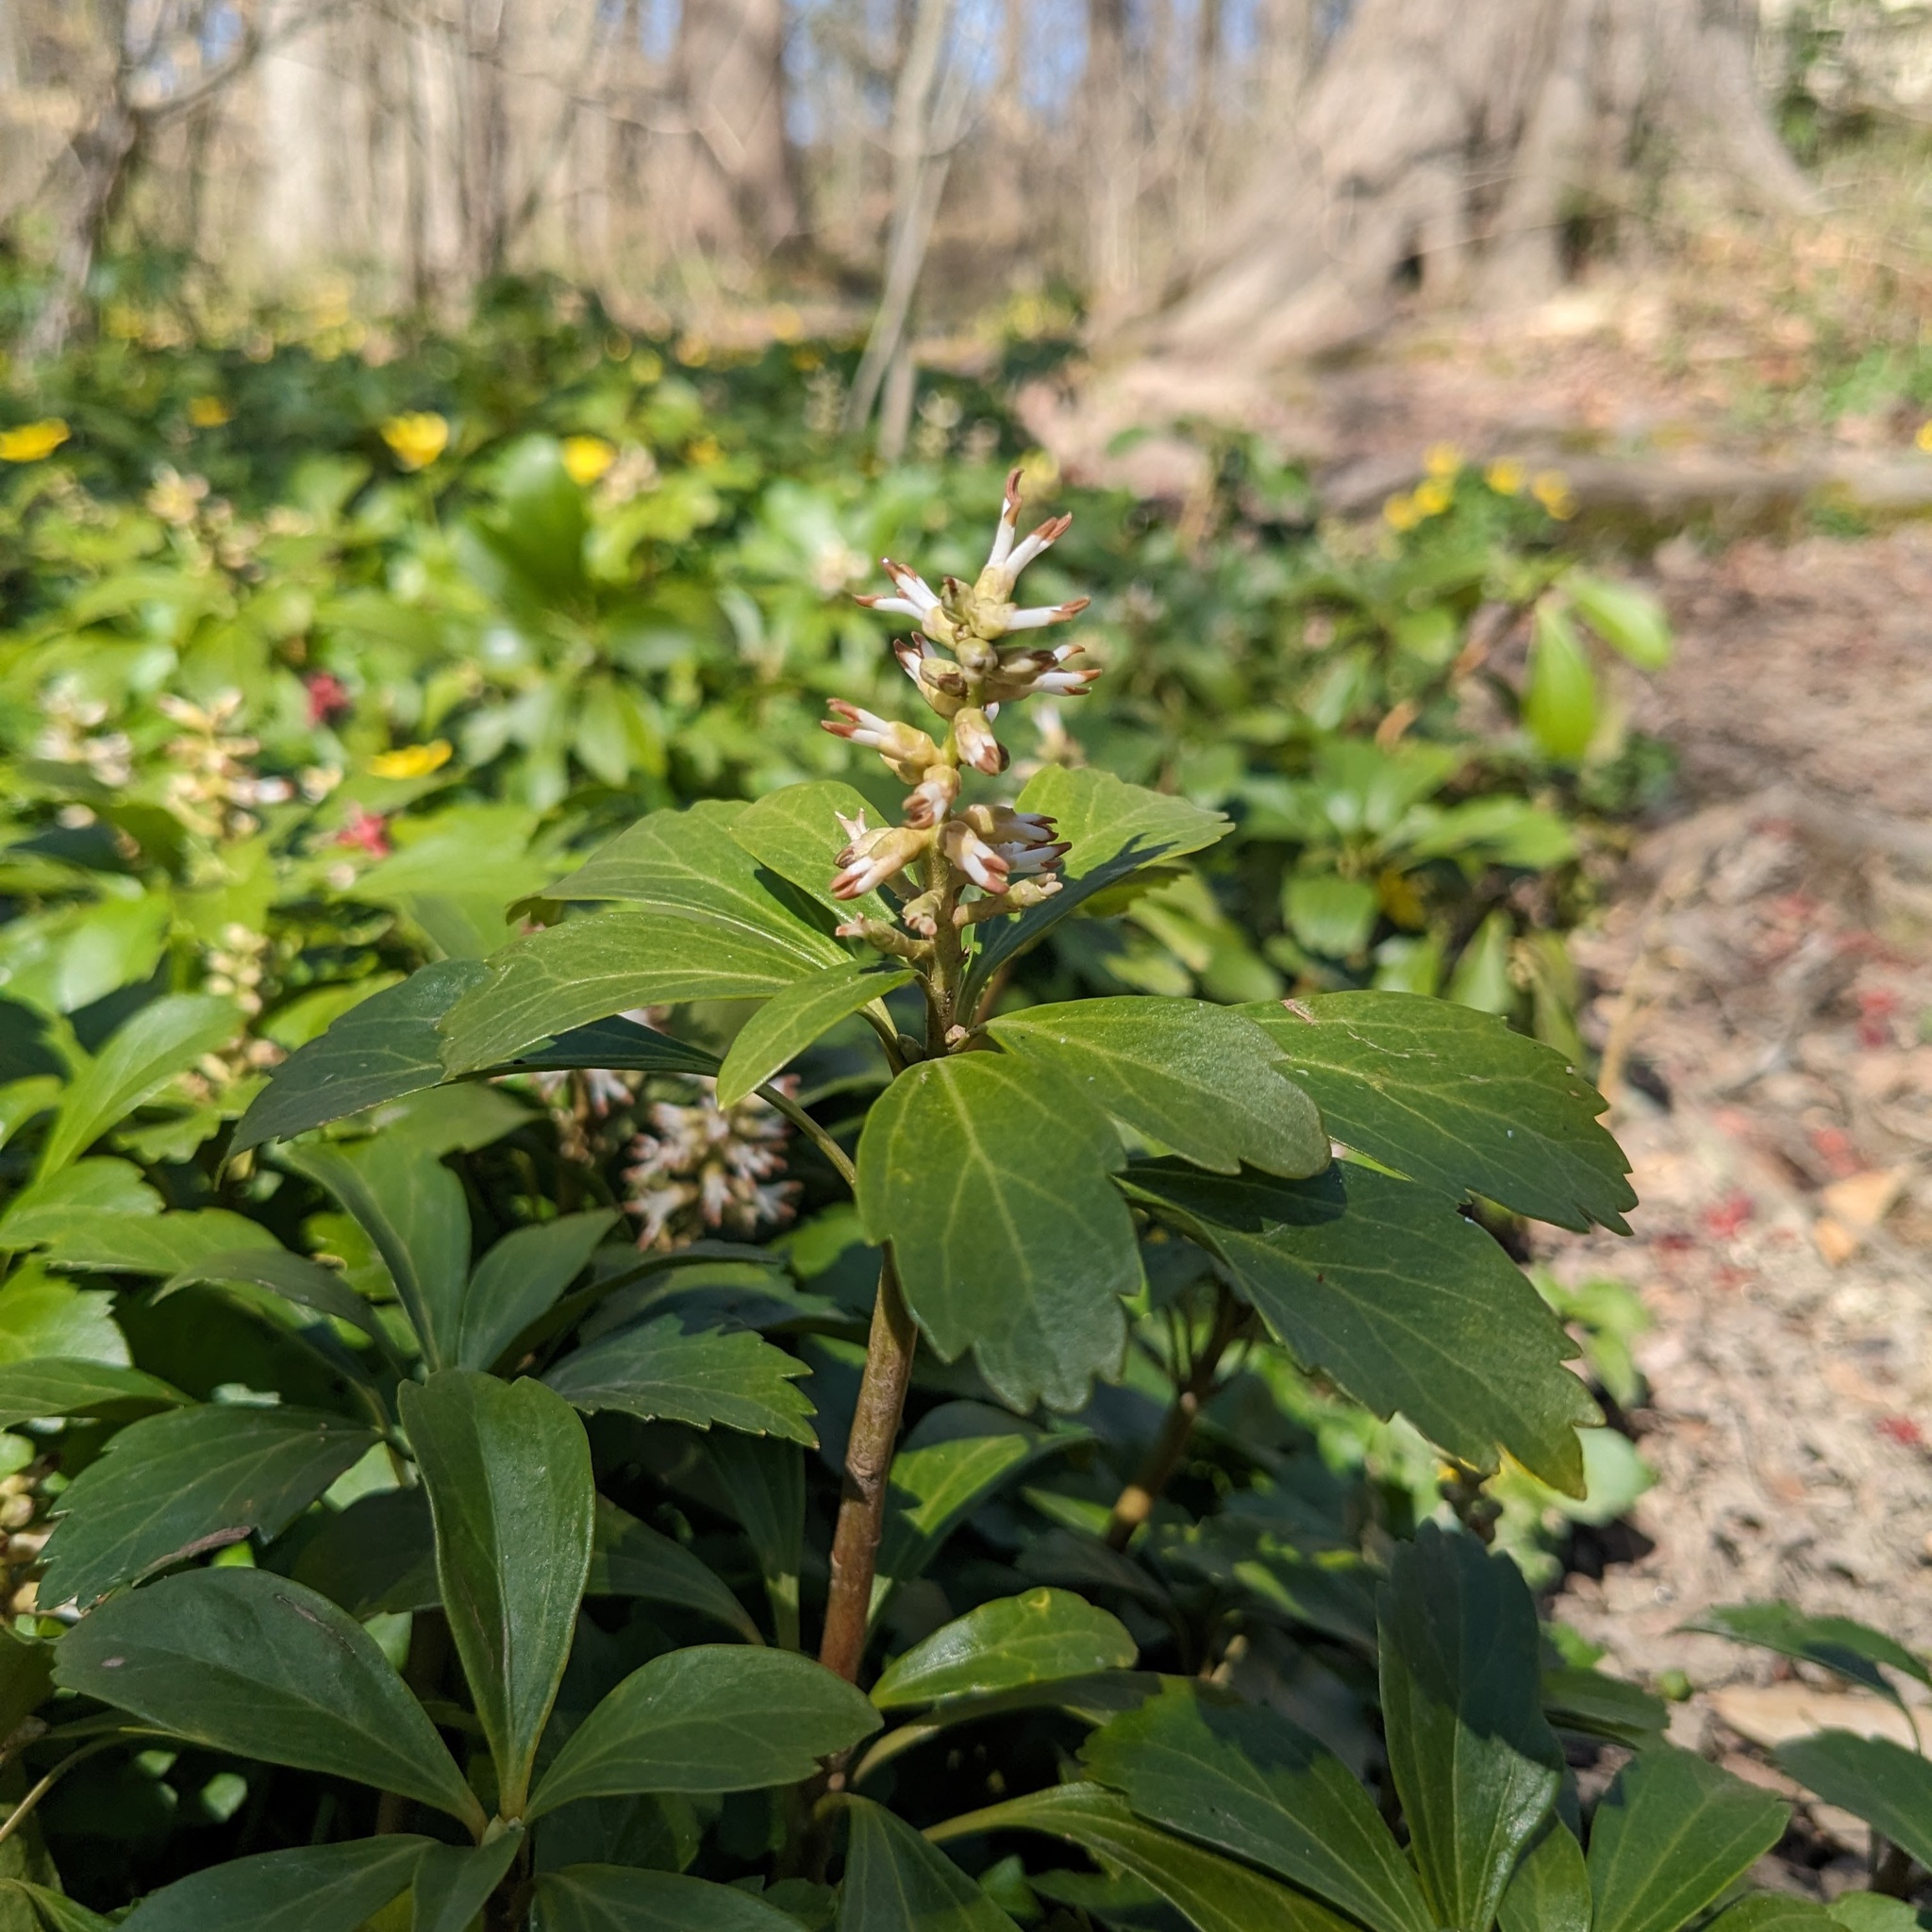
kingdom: Plantae
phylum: Tracheophyta
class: Magnoliopsida
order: Buxales
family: Buxaceae
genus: Pachysandra
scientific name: Pachysandra terminalis
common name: Japanese pachysandra
